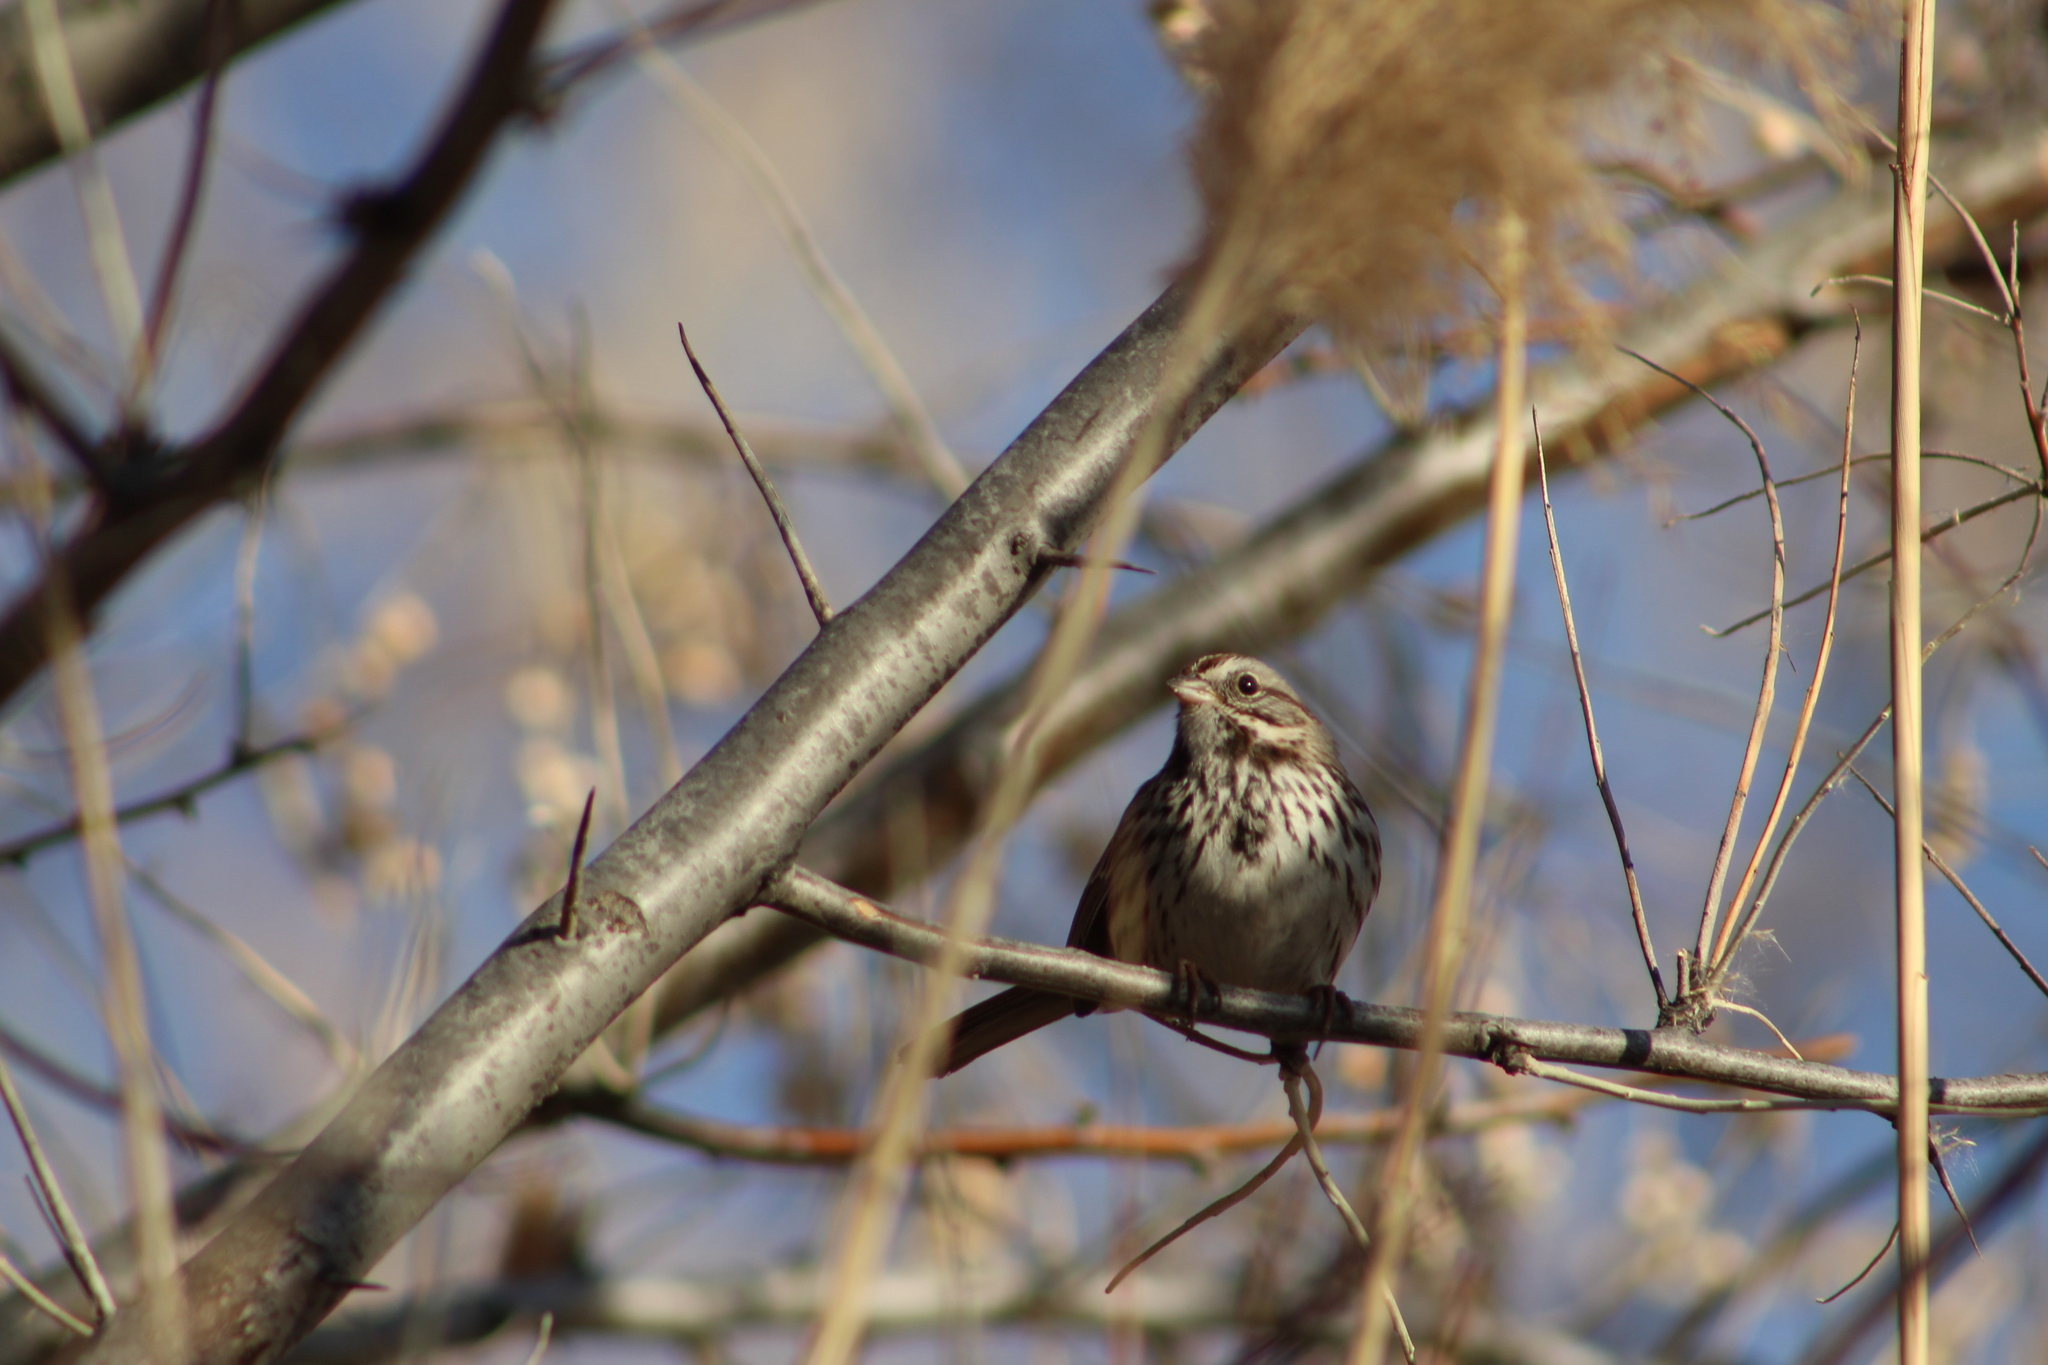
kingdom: Animalia
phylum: Chordata
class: Aves
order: Passeriformes
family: Passerellidae
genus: Melospiza
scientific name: Melospiza melodia
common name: Song sparrow
